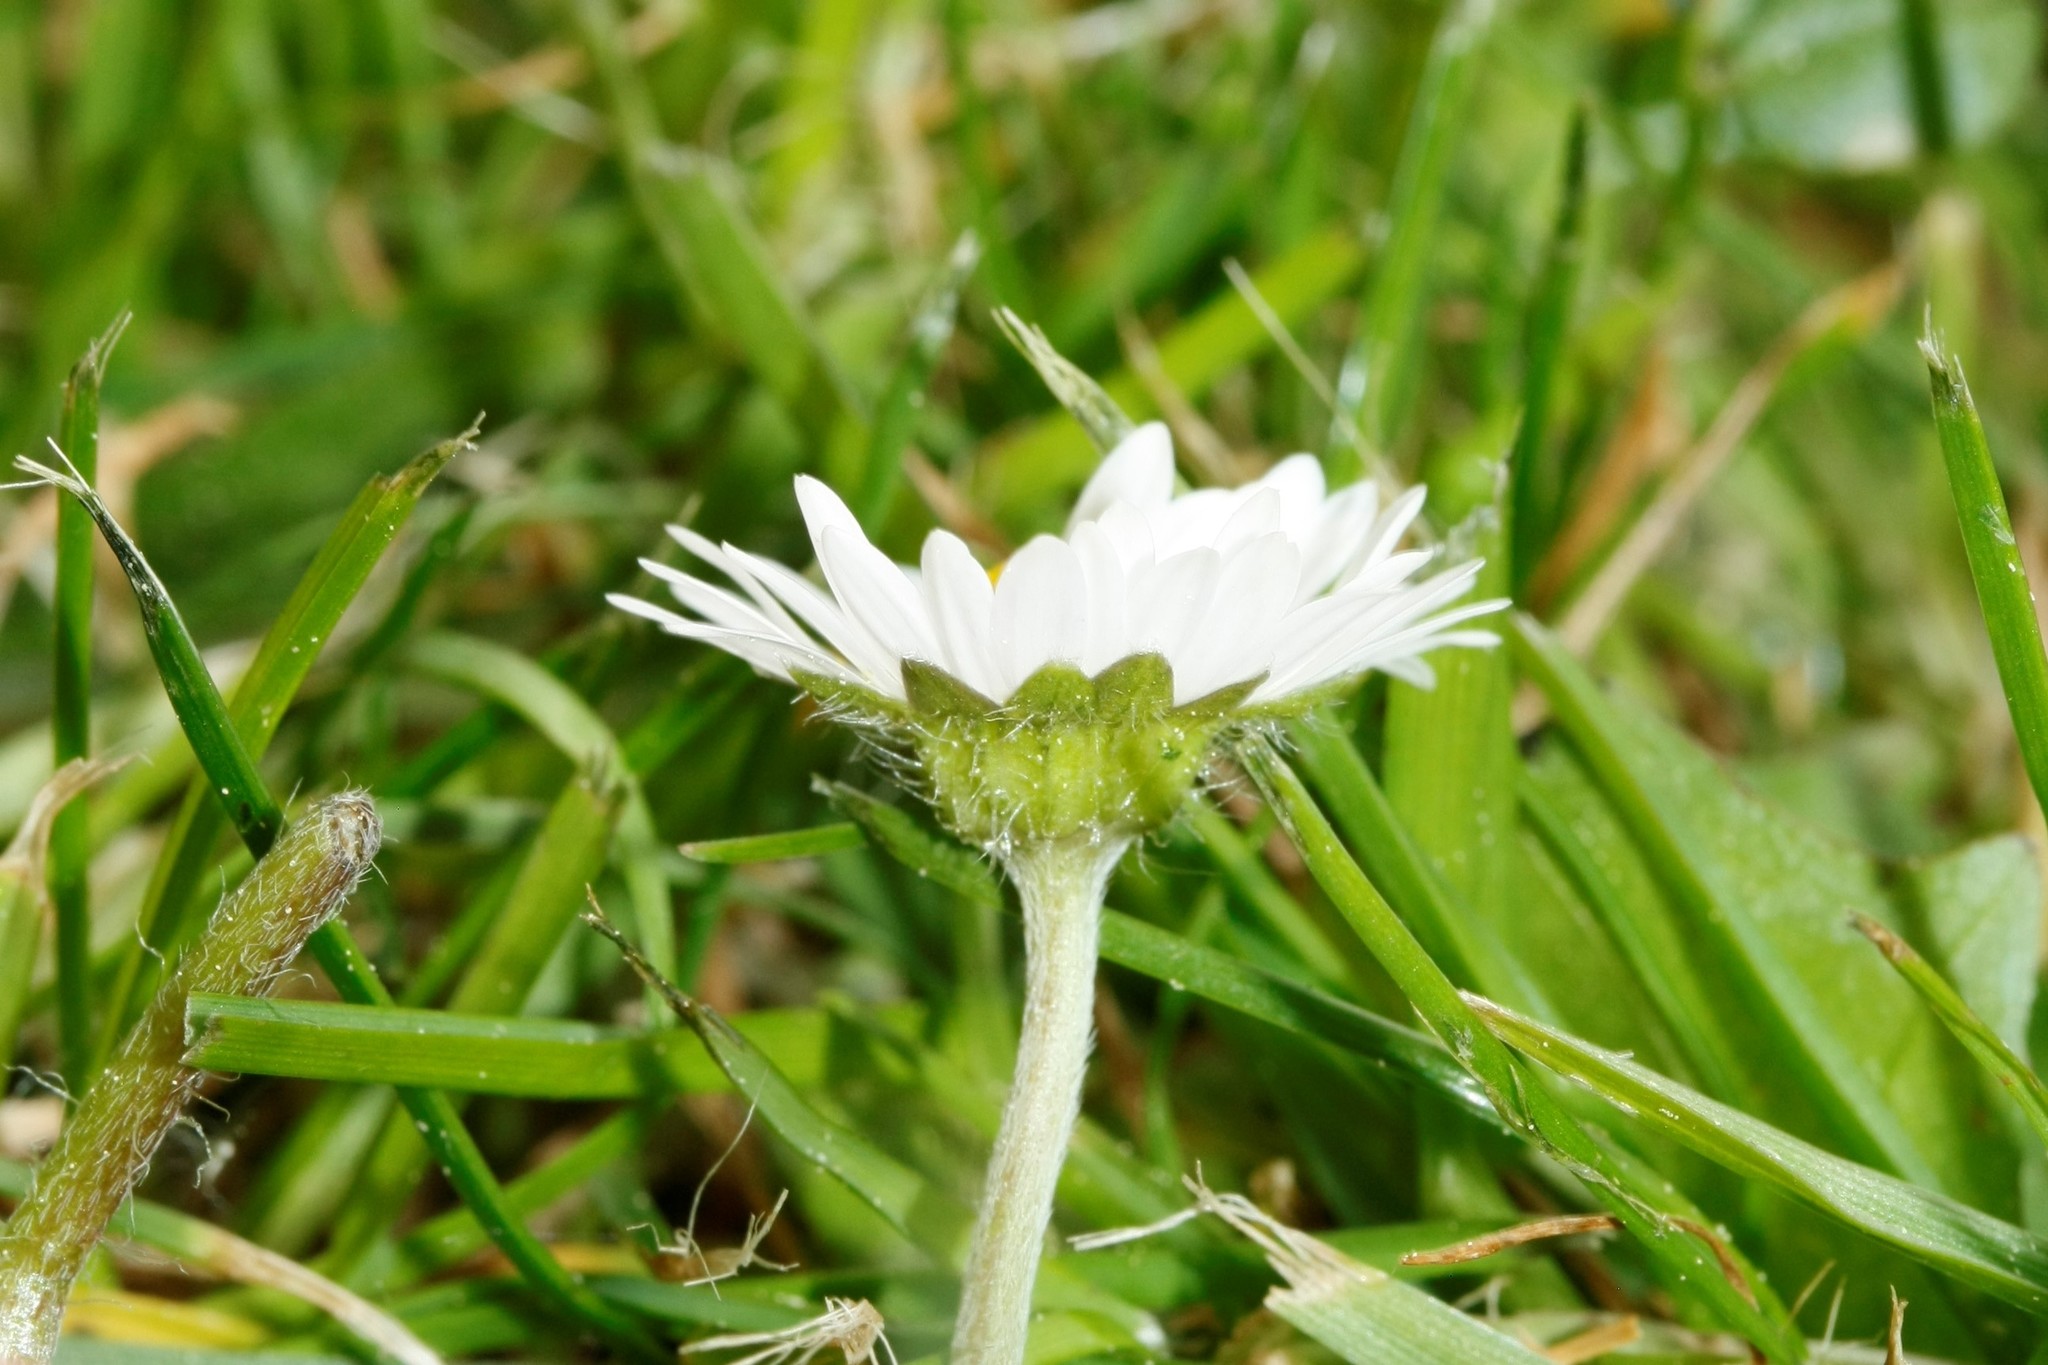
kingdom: Plantae
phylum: Tracheophyta
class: Magnoliopsida
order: Asterales
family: Asteraceae
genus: Bellis
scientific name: Bellis perennis
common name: Lawndaisy
